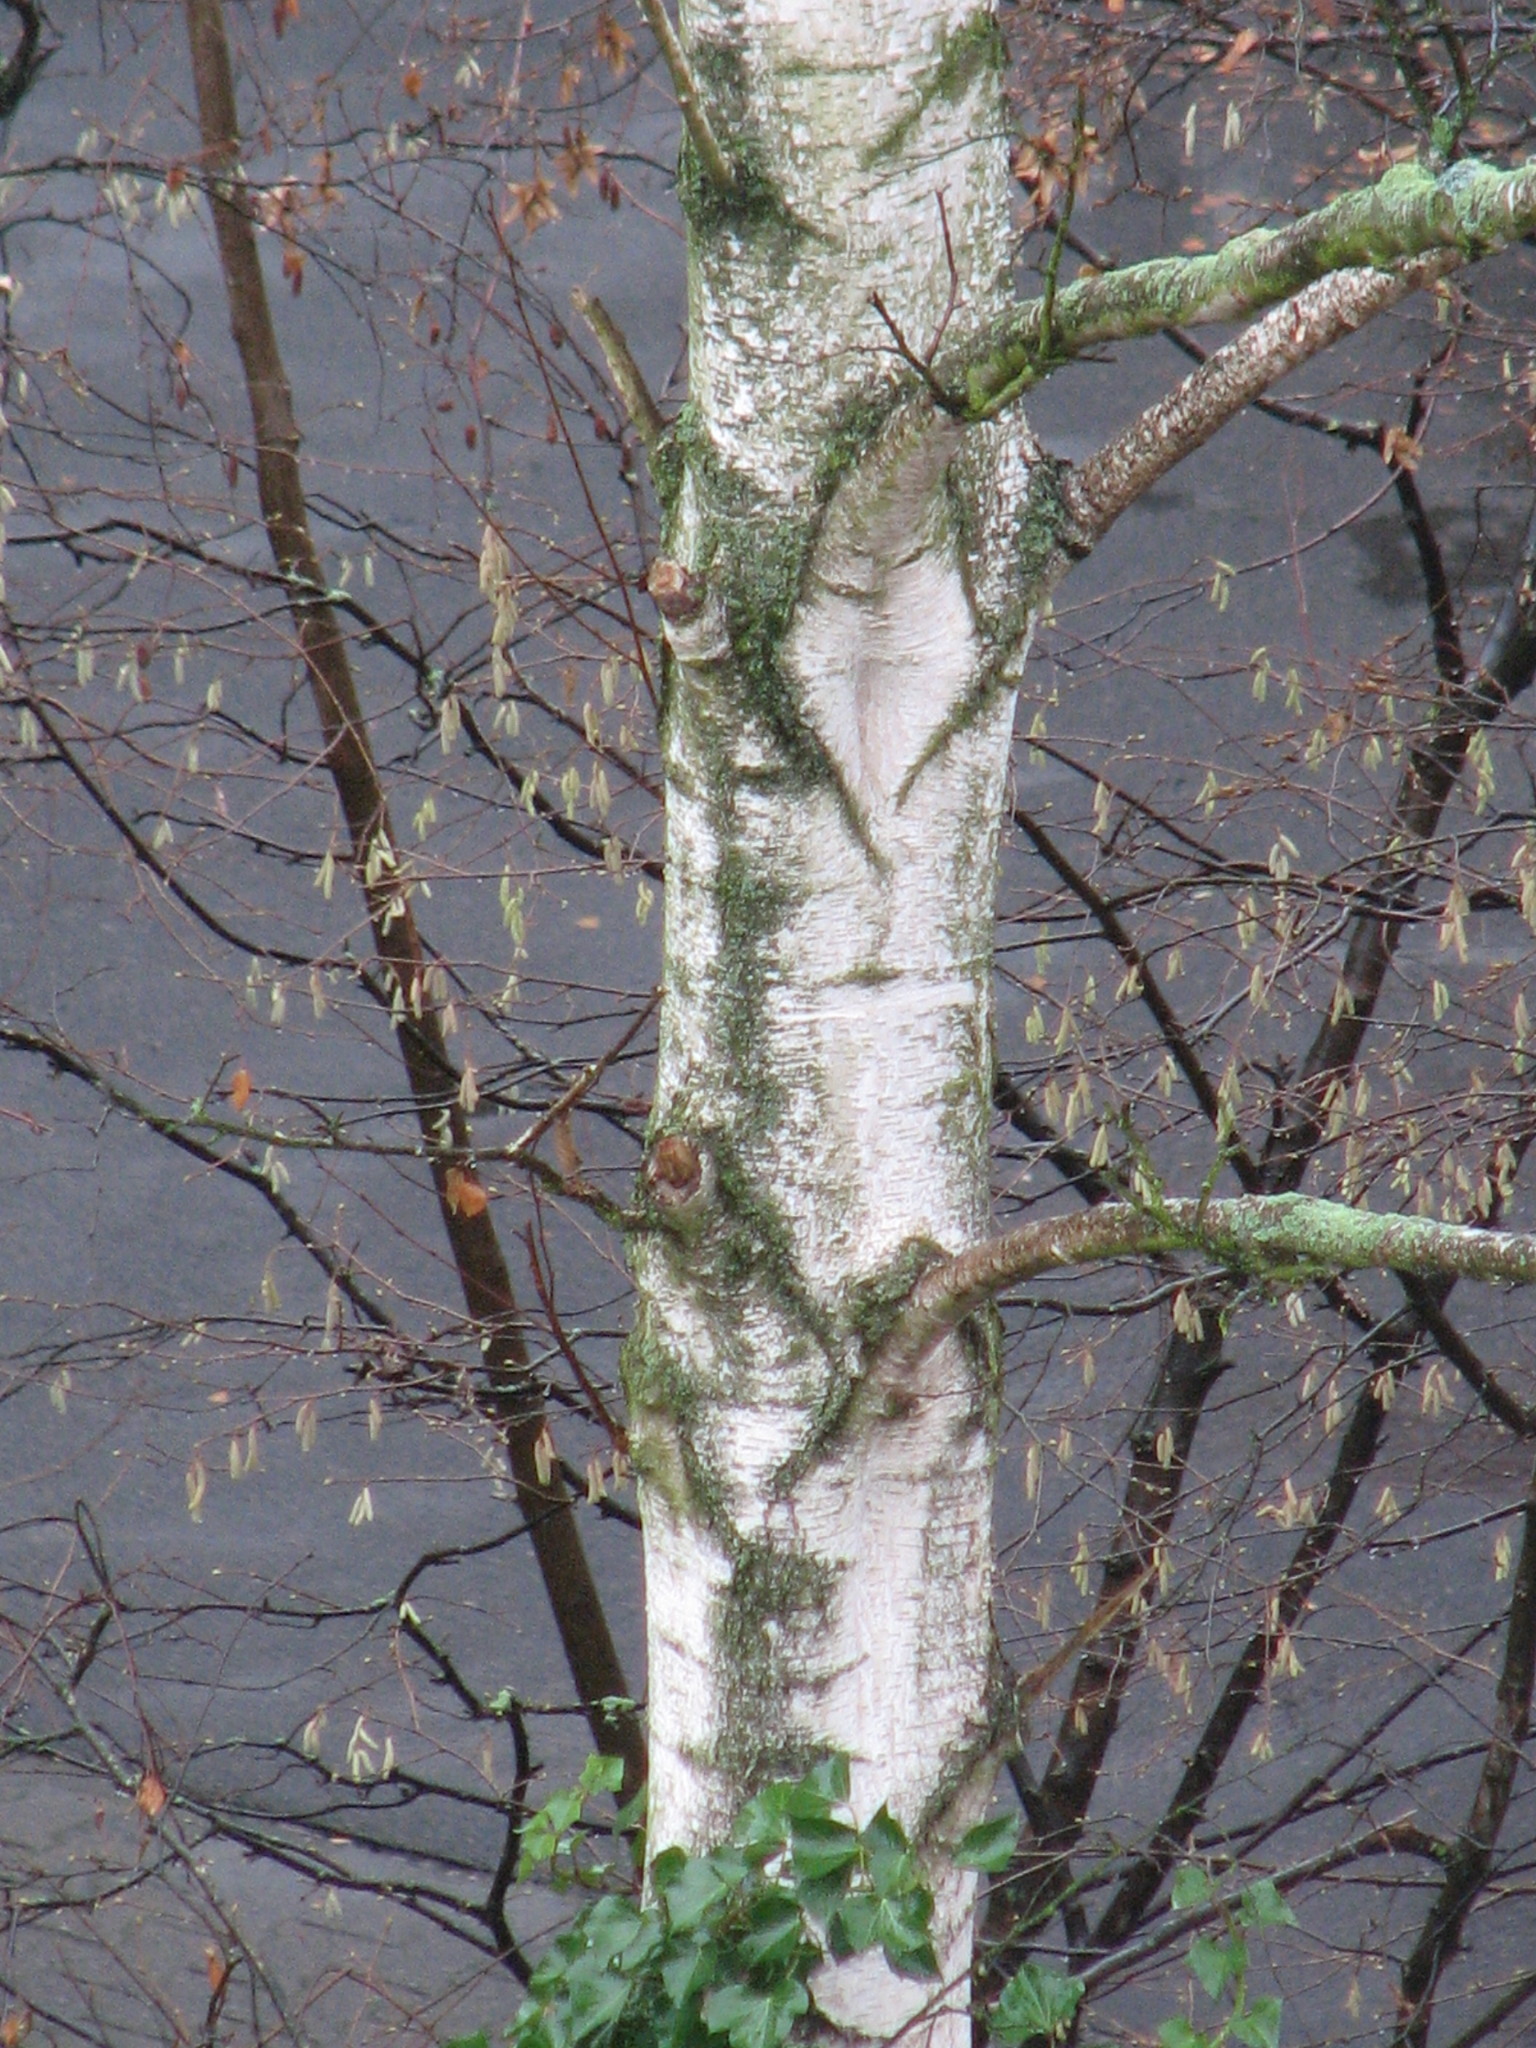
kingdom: Plantae
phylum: Tracheophyta
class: Magnoliopsida
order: Fagales
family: Betulaceae
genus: Betula
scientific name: Betula pendula
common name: Silver birch
